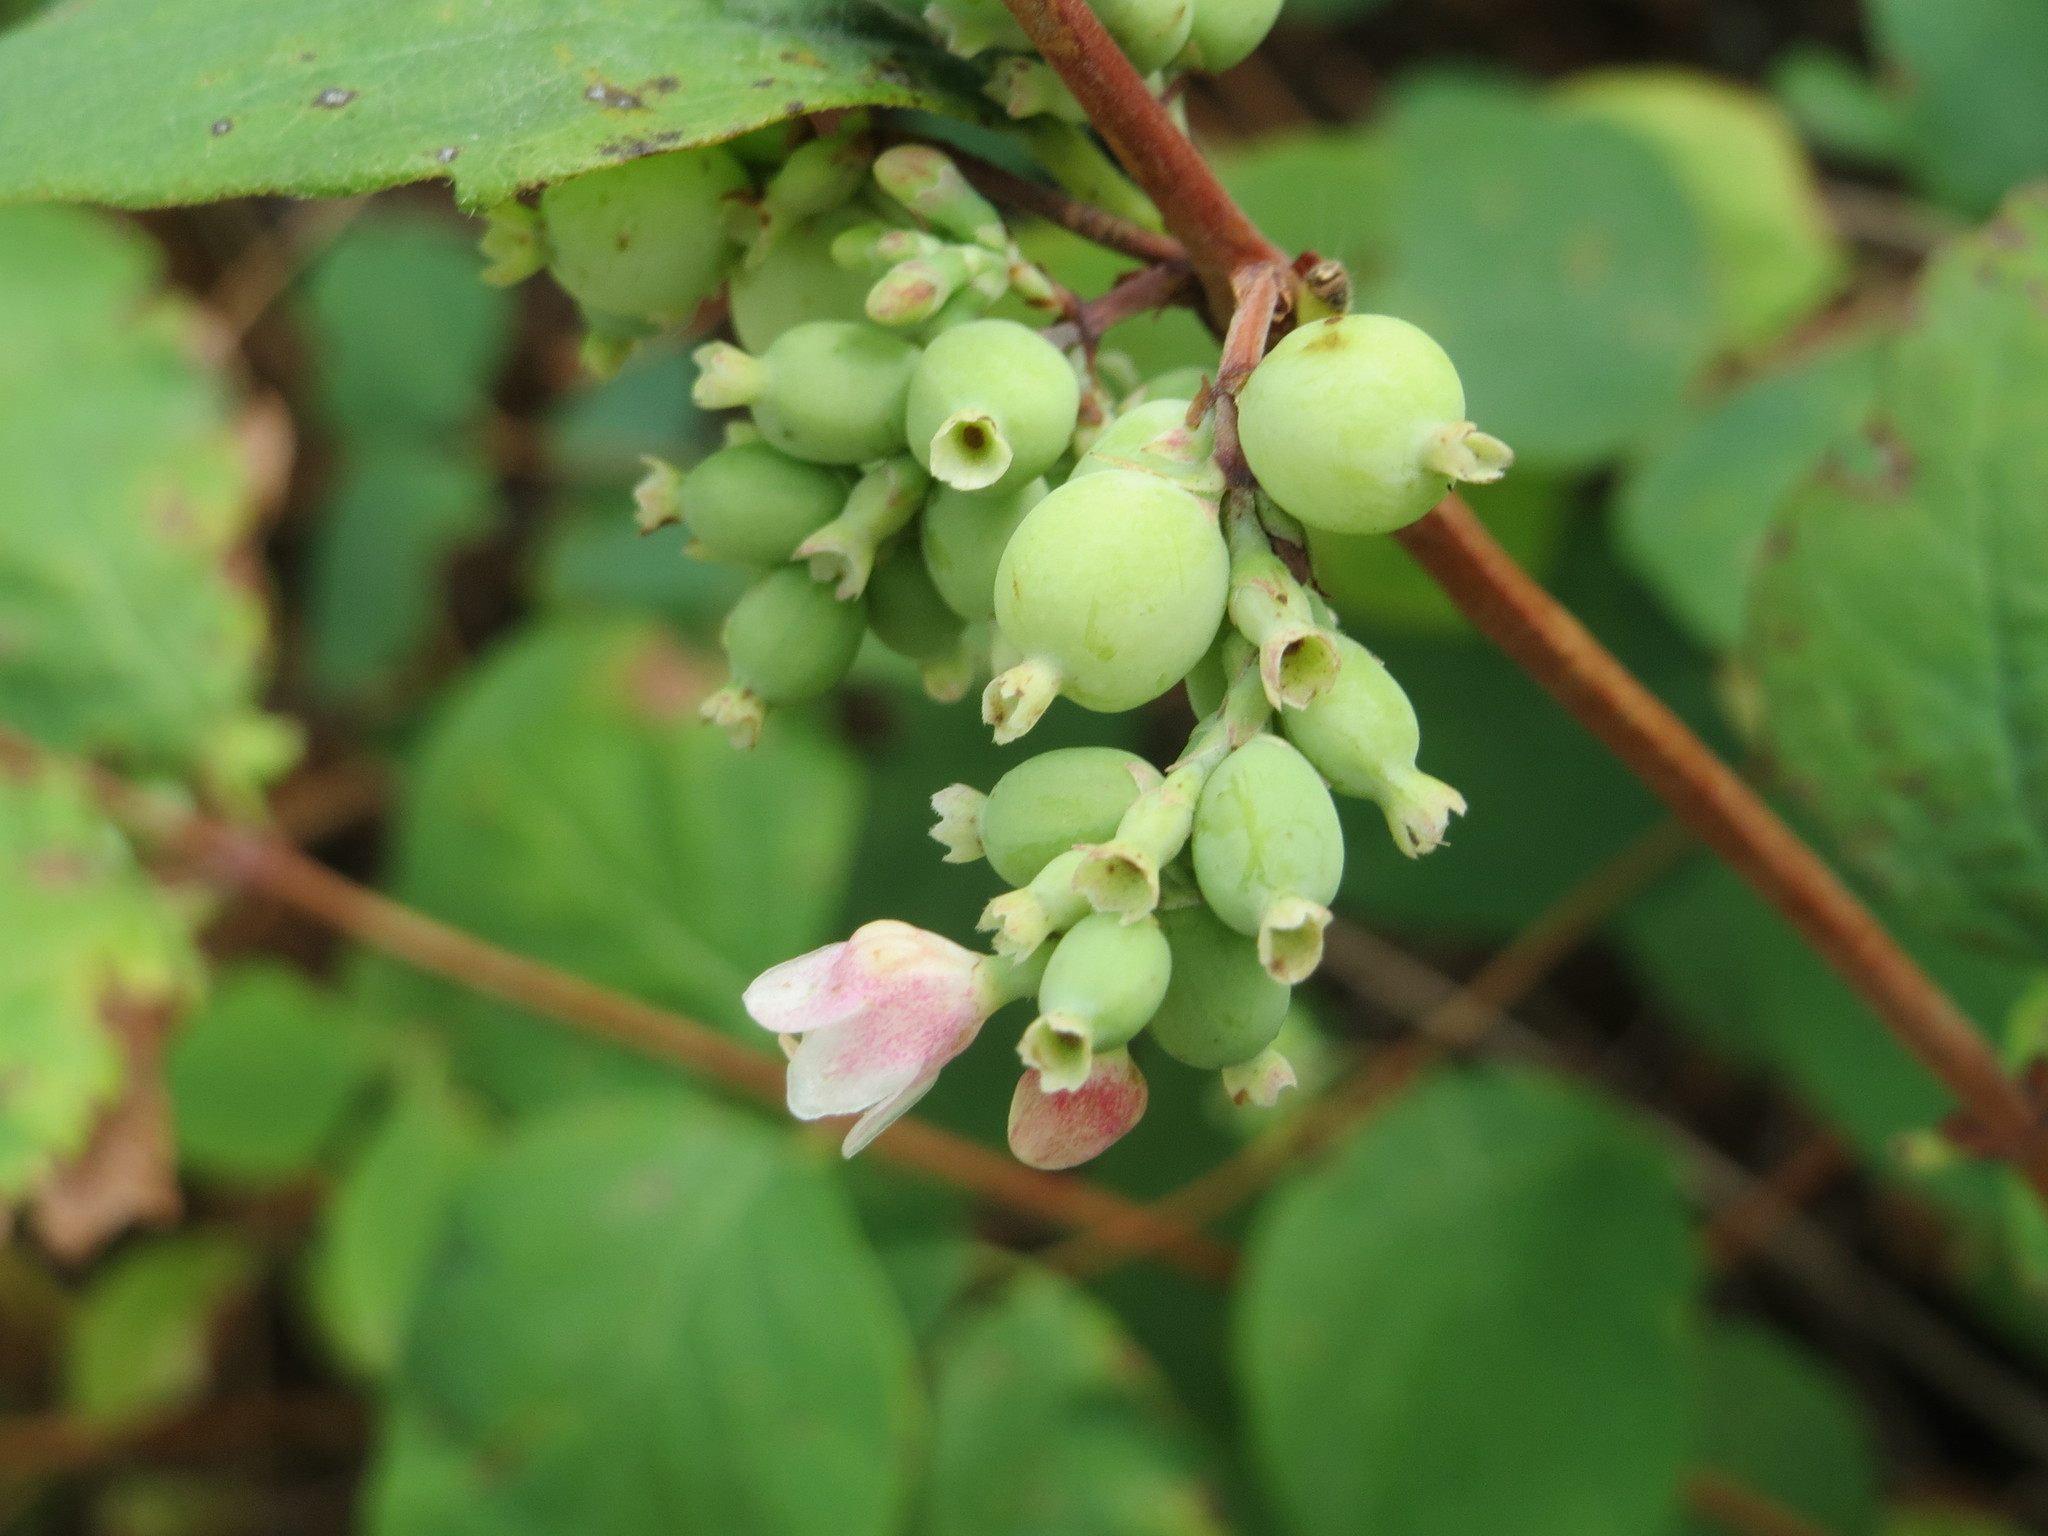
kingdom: Plantae
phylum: Tracheophyta
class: Magnoliopsida
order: Dipsacales
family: Caprifoliaceae
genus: Symphoricarpos
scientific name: Symphoricarpos albus
